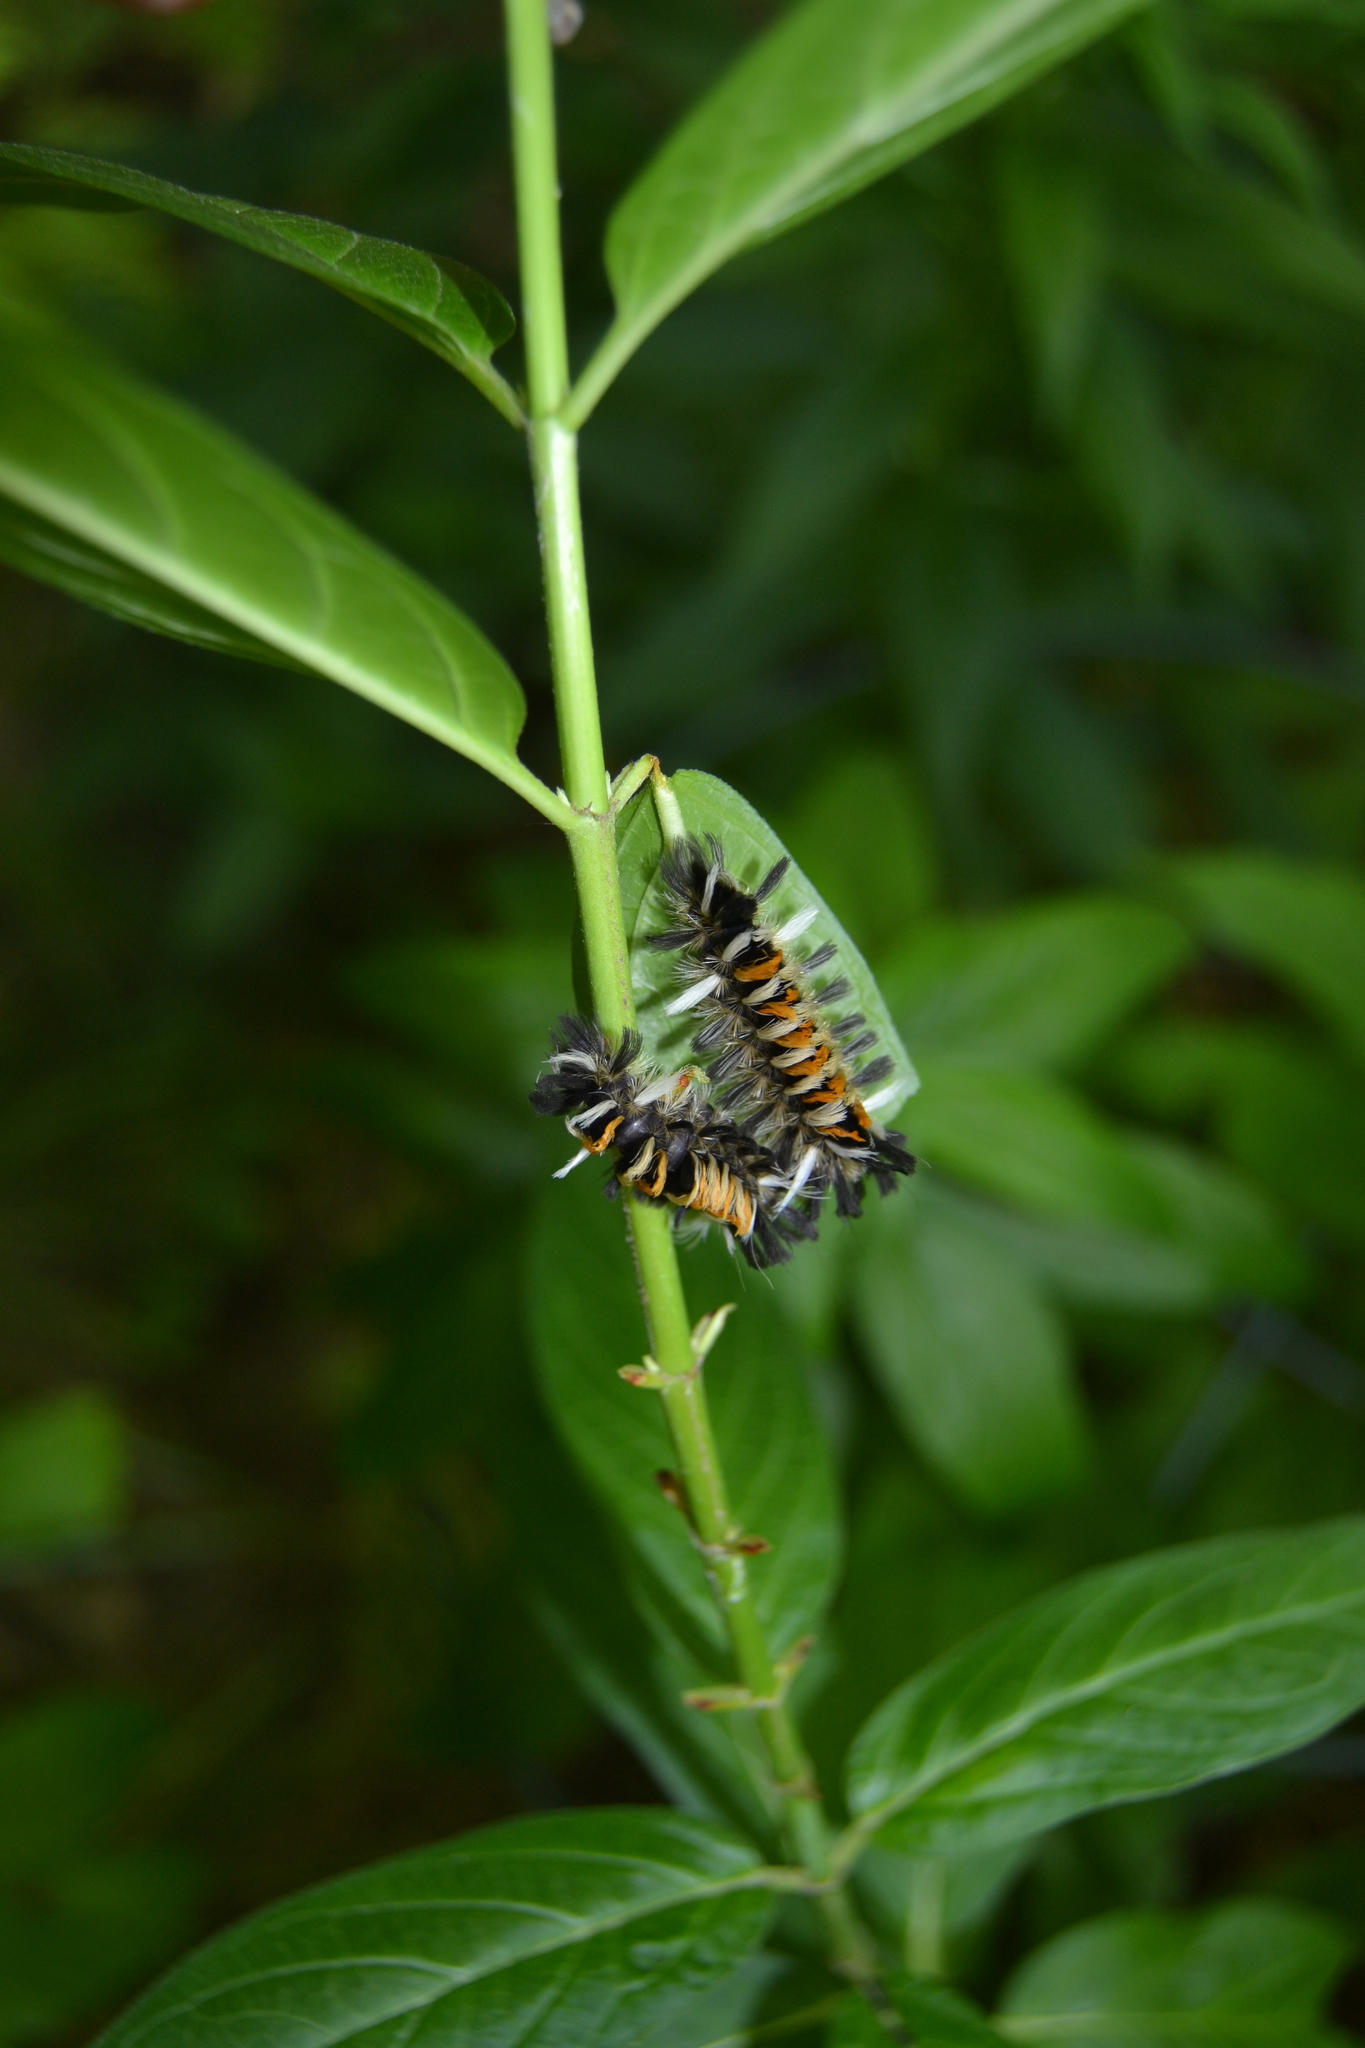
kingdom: Animalia
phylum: Arthropoda
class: Insecta
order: Lepidoptera
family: Erebidae
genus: Euchaetes
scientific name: Euchaetes egle
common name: Milkweed tussock moth
